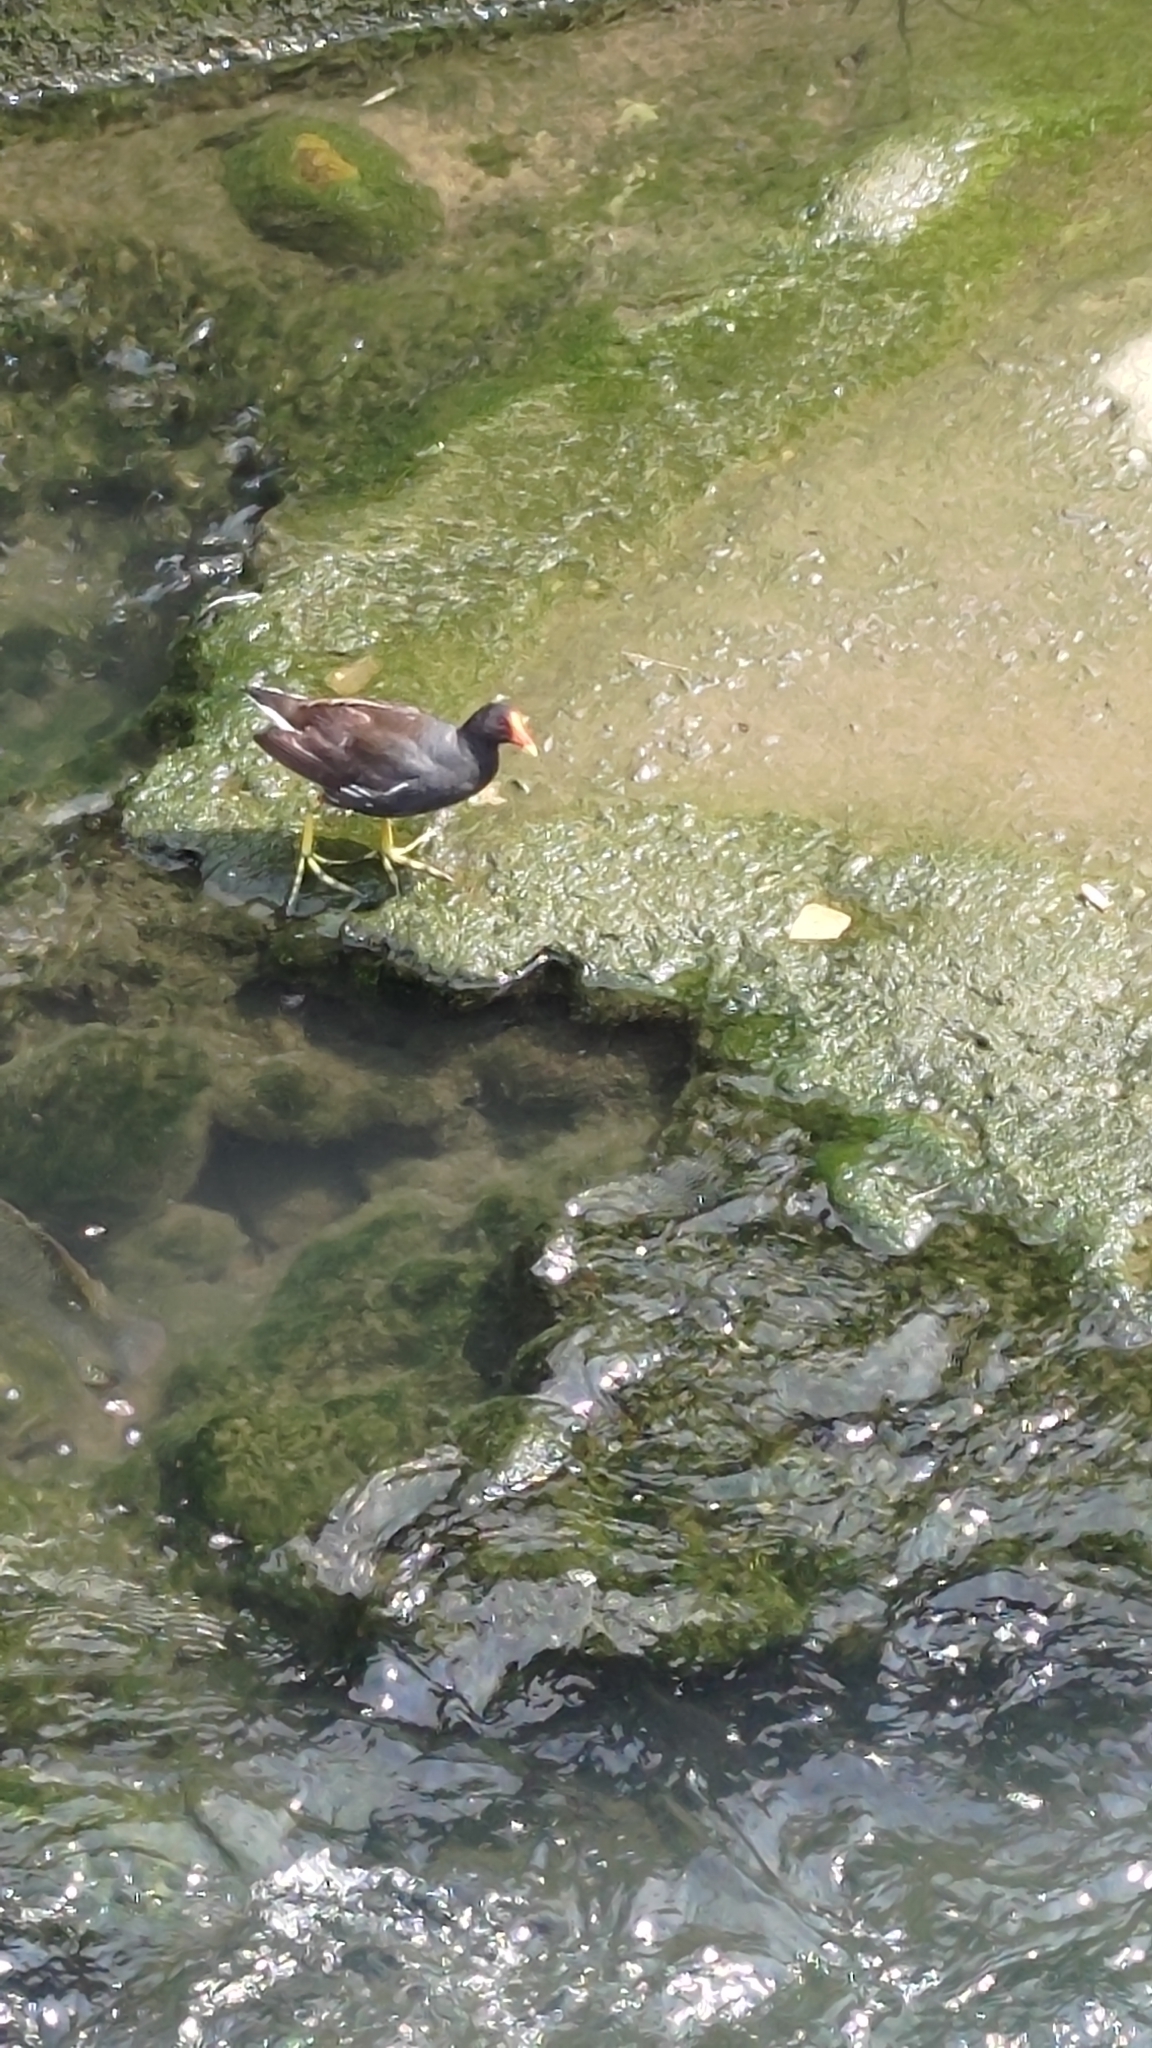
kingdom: Animalia
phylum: Chordata
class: Aves
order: Gruiformes
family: Rallidae
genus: Gallinula
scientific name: Gallinula chloropus
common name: Common moorhen
